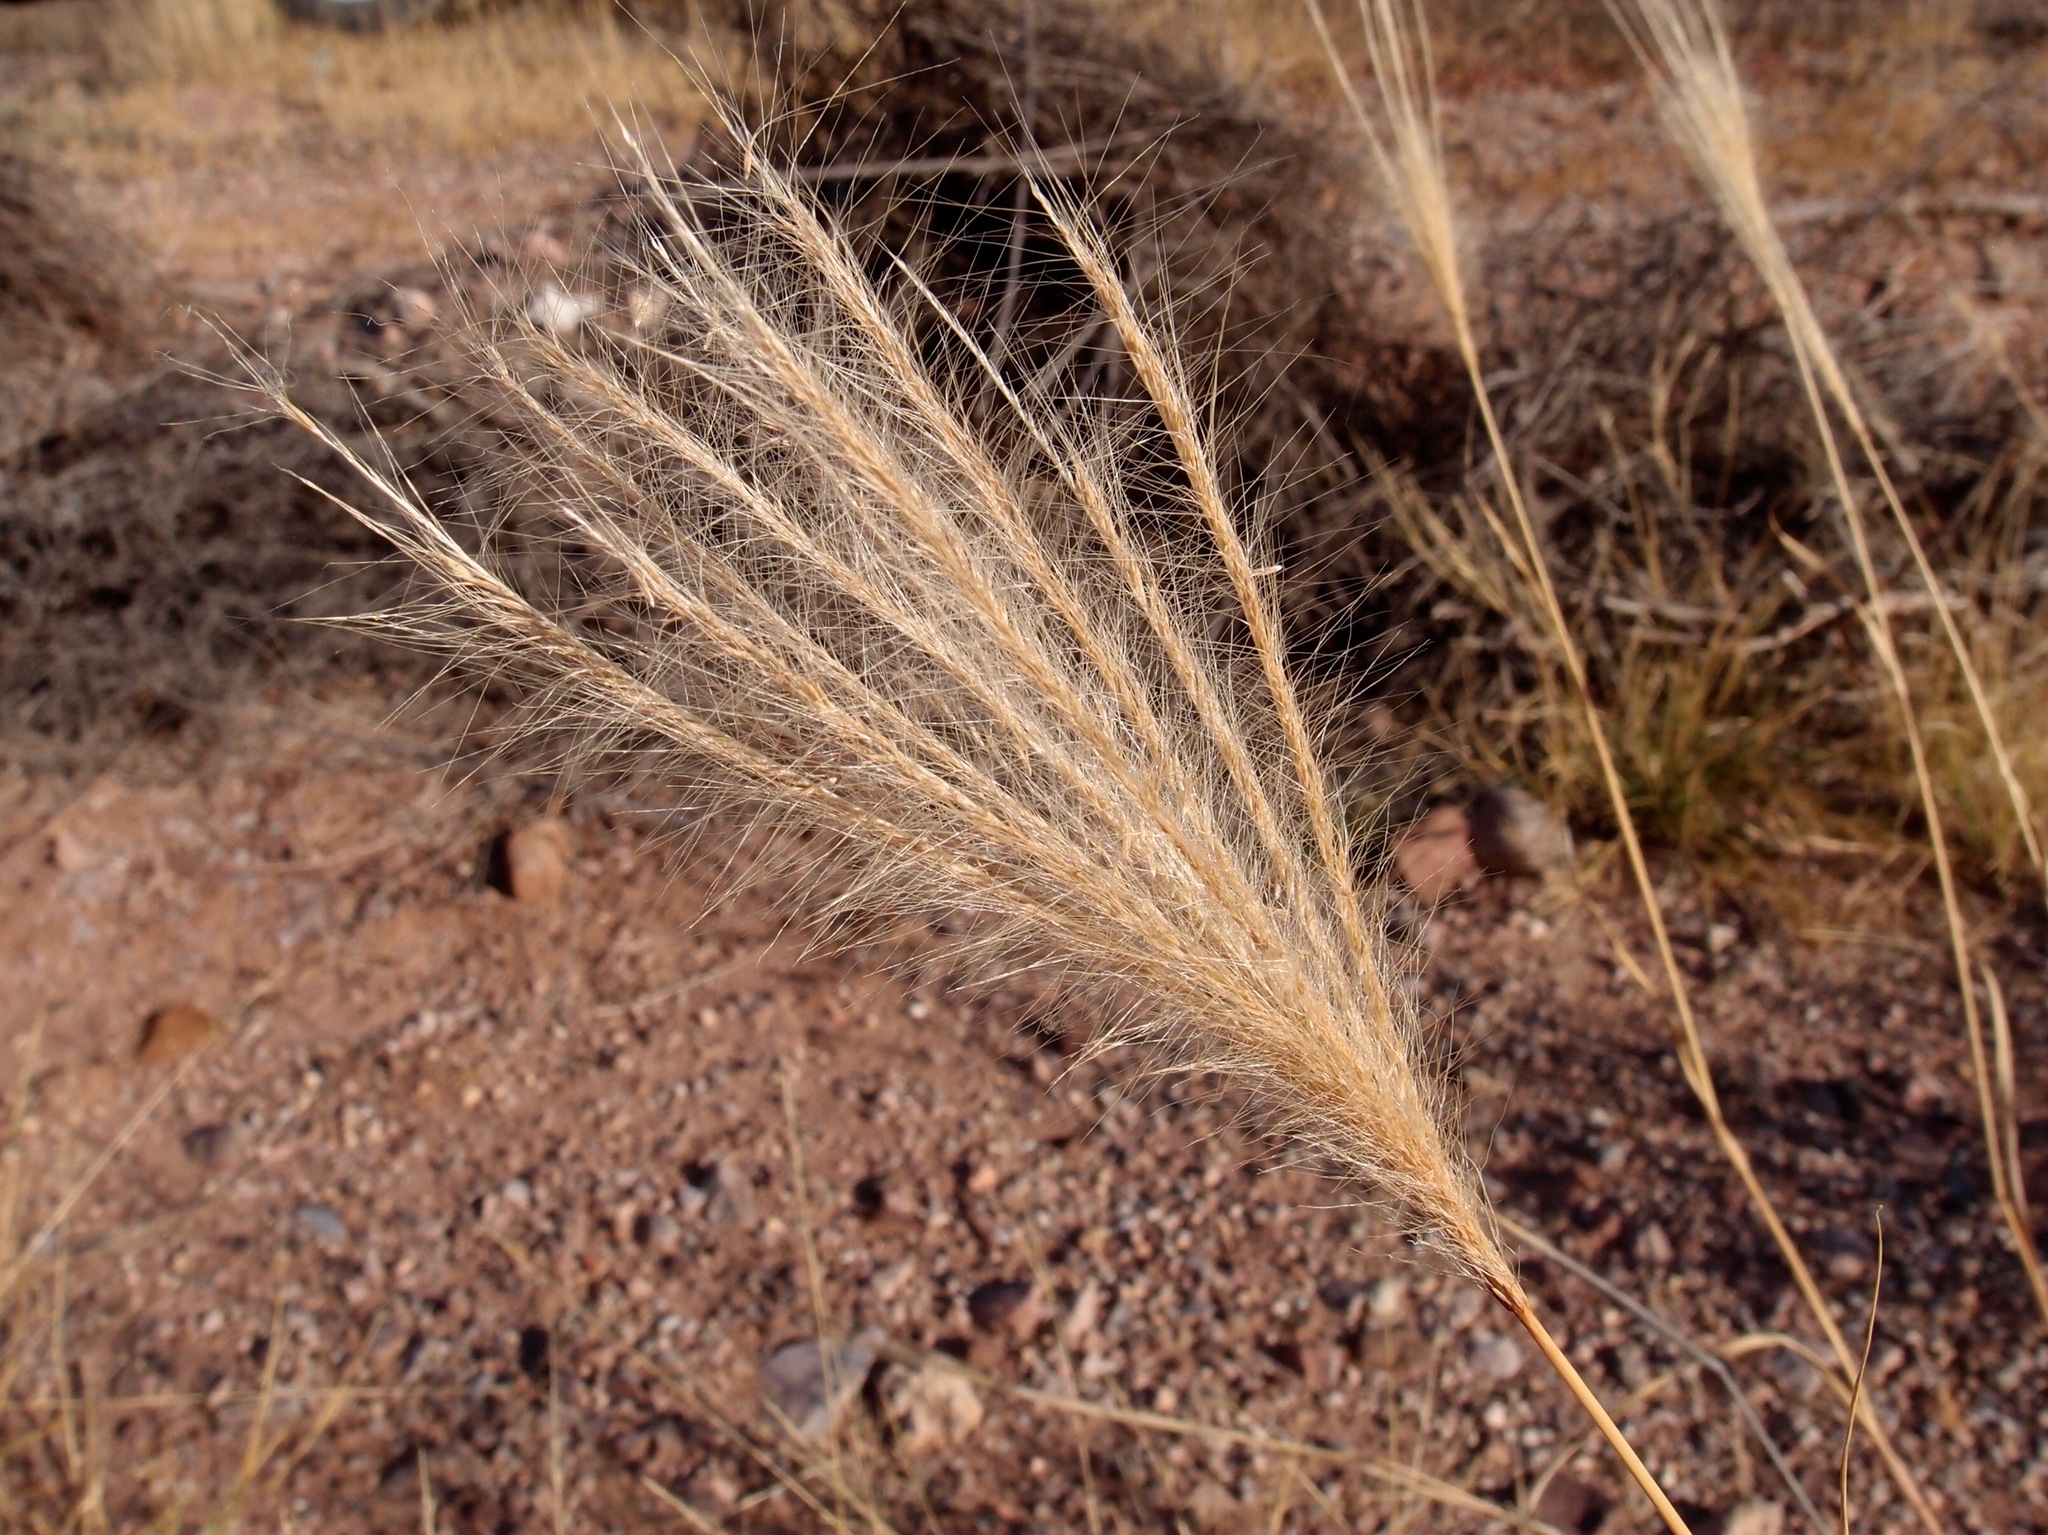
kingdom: Plantae
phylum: Tracheophyta
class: Liliopsida
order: Poales
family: Poaceae
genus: Leptochloa
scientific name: Leptochloa crinita
